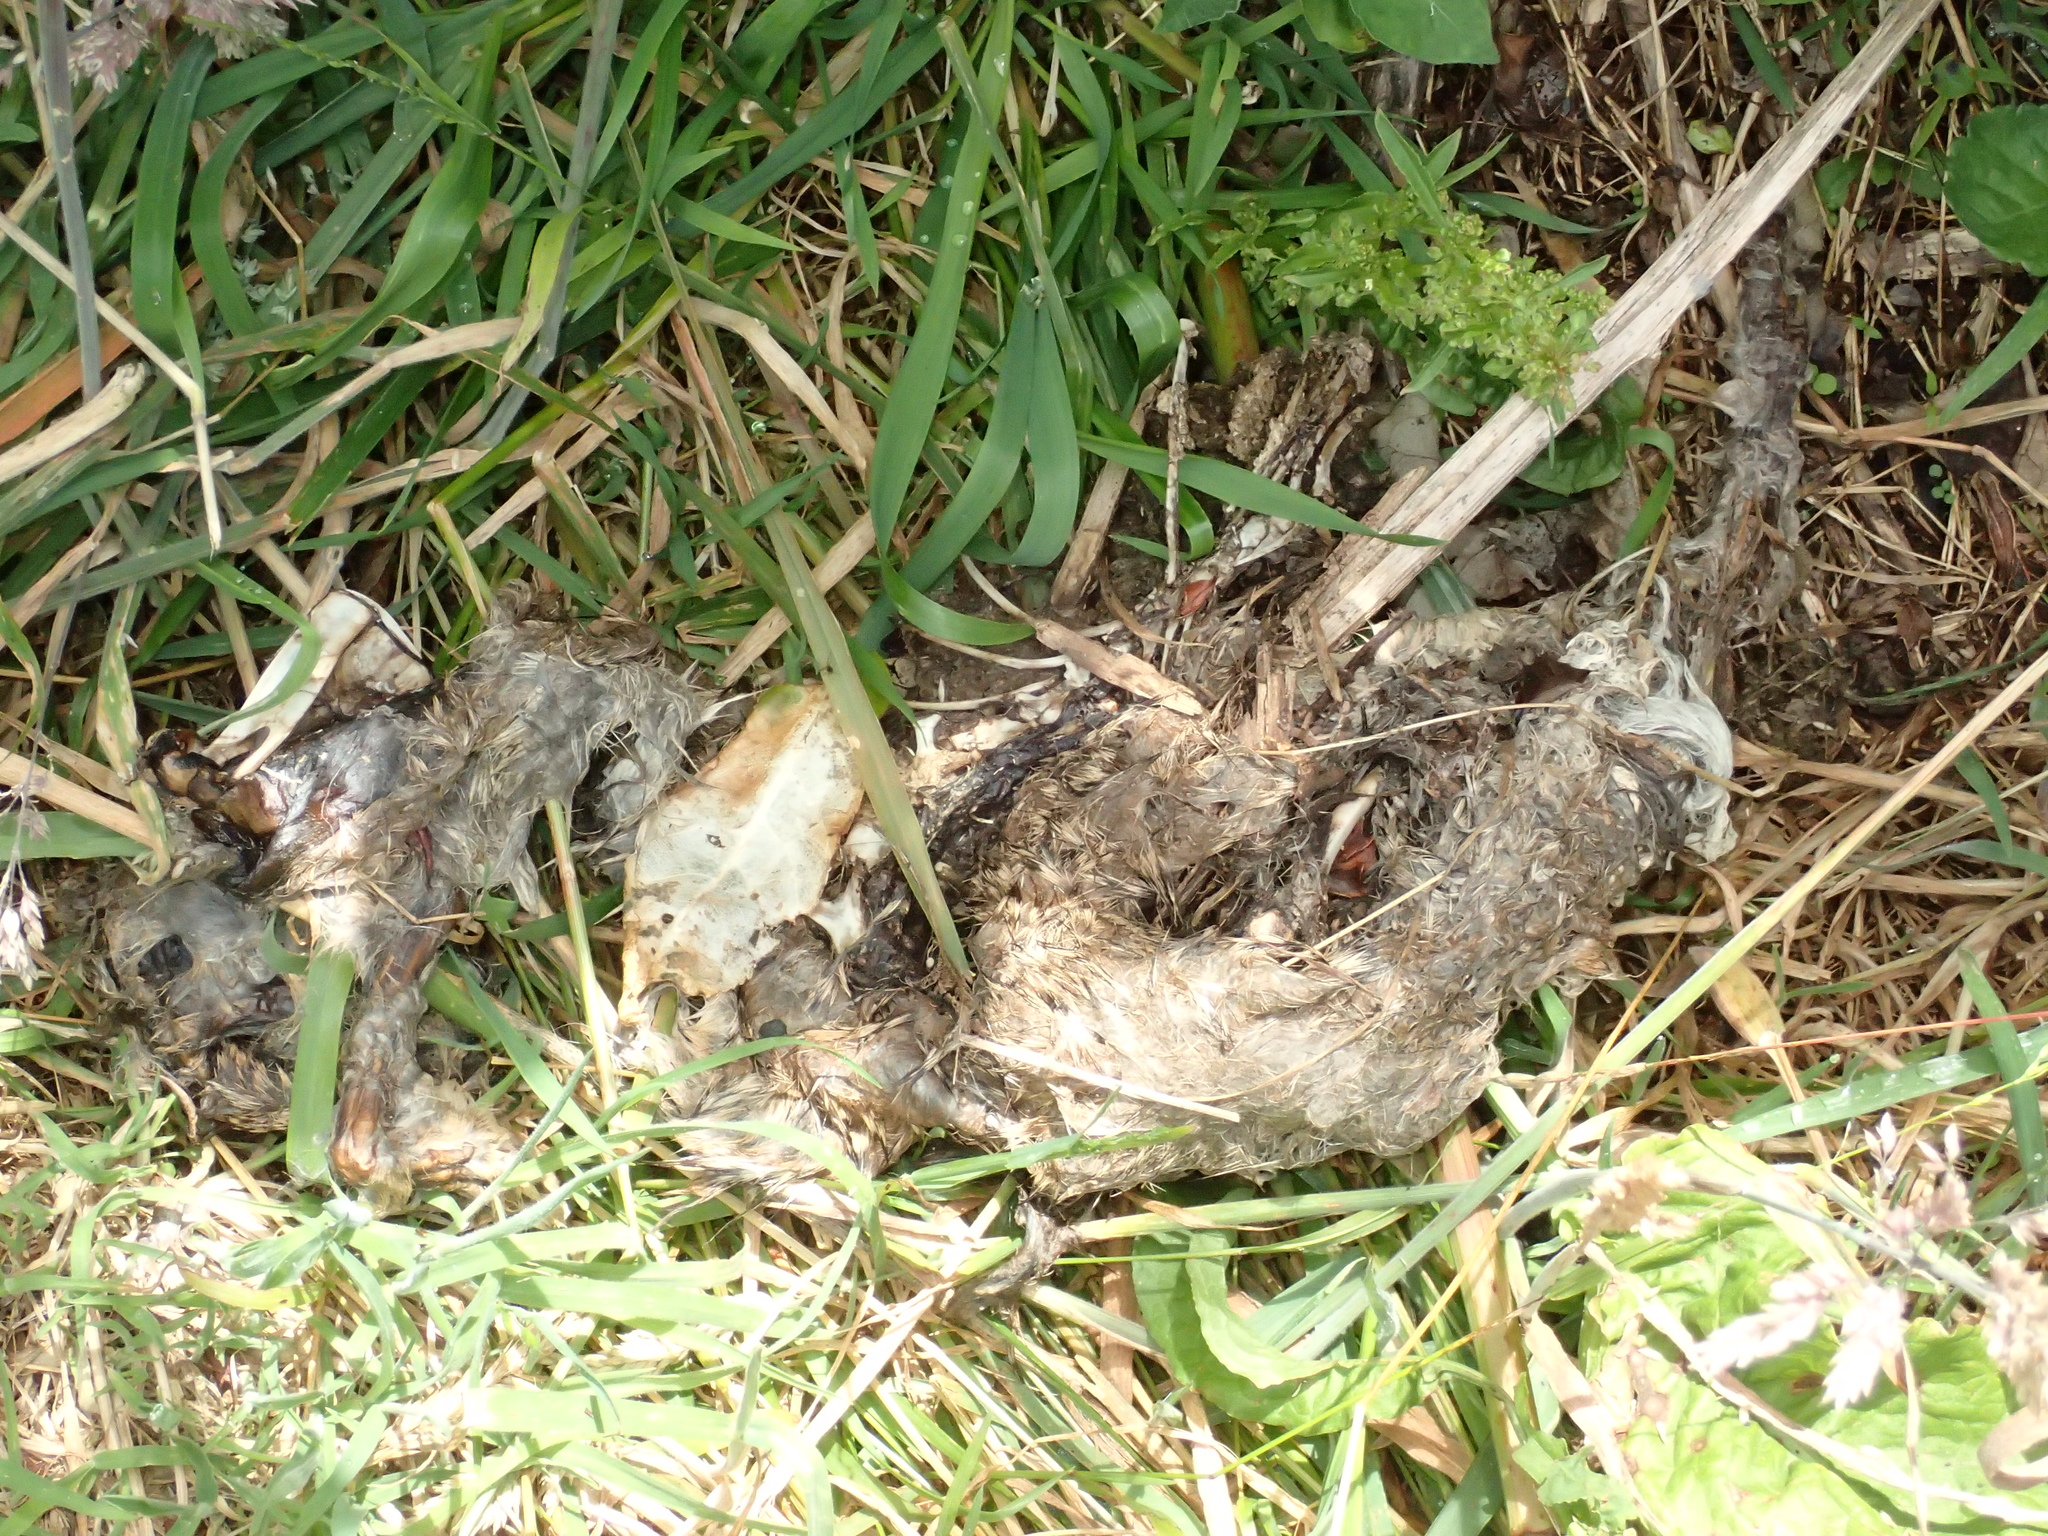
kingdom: Animalia
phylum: Chordata
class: Mammalia
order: Lagomorpha
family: Leporidae
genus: Oryctolagus
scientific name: Oryctolagus cuniculus
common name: European rabbit
